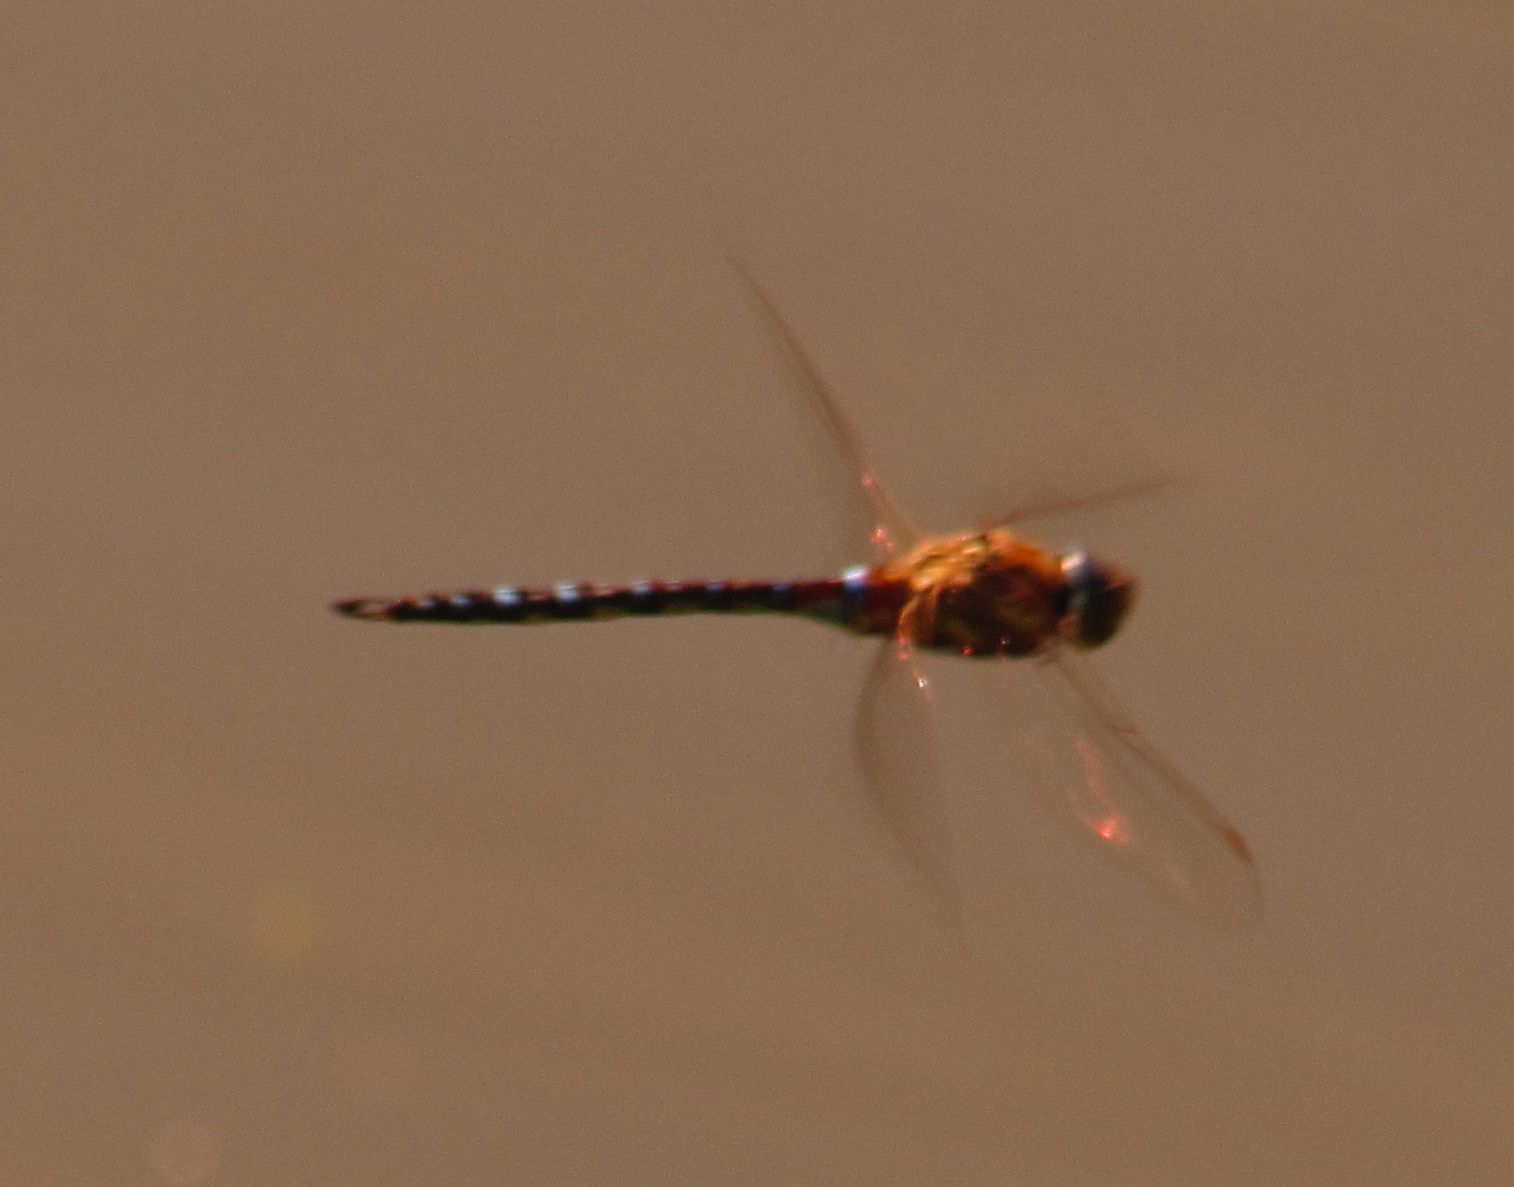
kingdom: Animalia
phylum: Arthropoda
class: Insecta
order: Odonata
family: Aeshnidae
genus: Aeshna
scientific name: Aeshna mixta
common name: Migrant hawker
